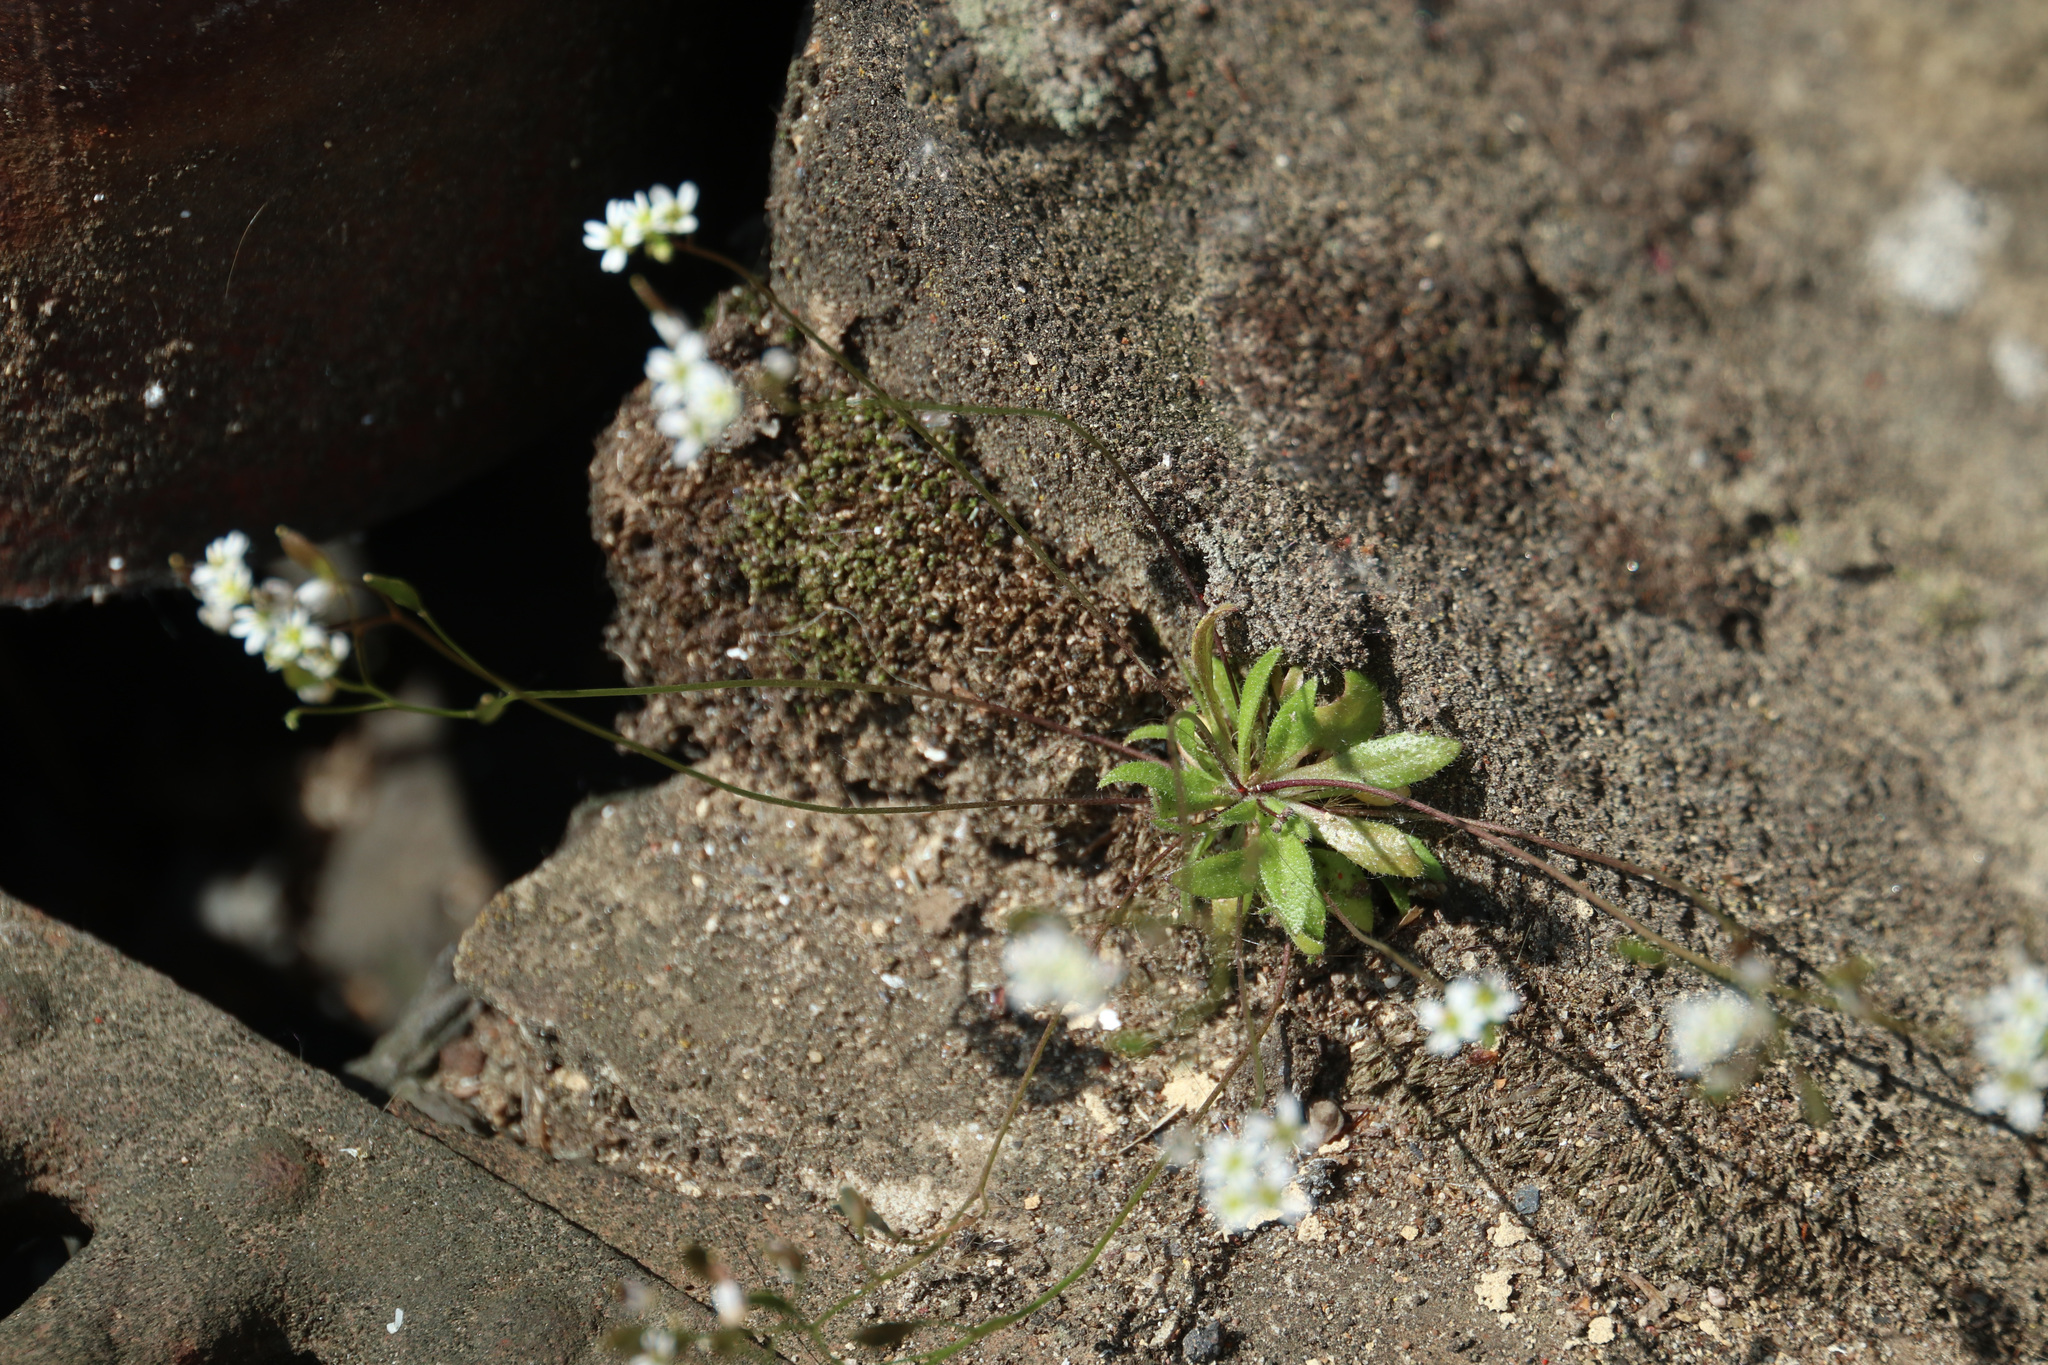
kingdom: Plantae
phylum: Tracheophyta
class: Magnoliopsida
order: Brassicales
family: Brassicaceae
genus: Draba
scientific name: Draba verna
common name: Spring draba
